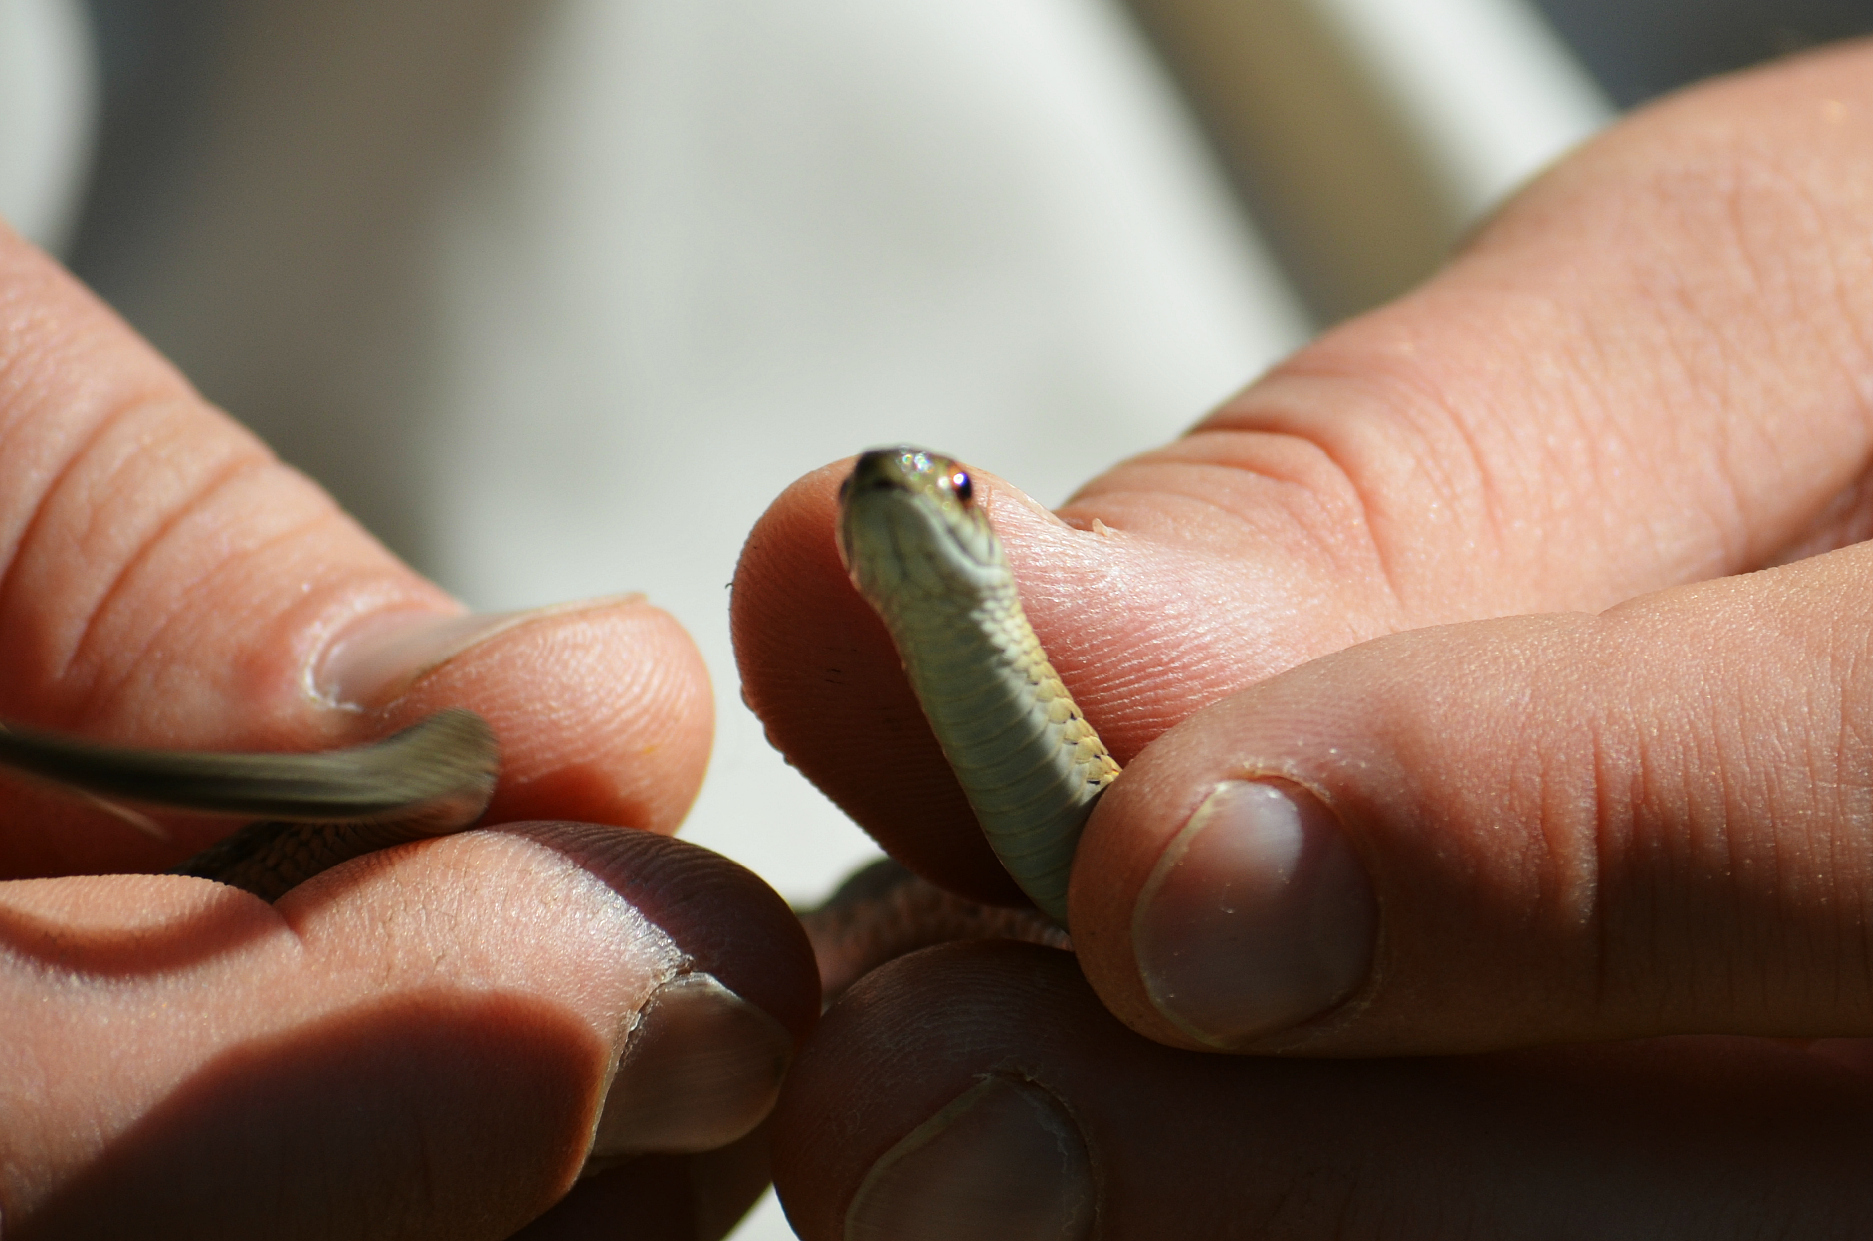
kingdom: Animalia
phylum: Chordata
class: Squamata
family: Colubridae
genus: Thamnophis
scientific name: Thamnophis sirtalis
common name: Common garter snake
